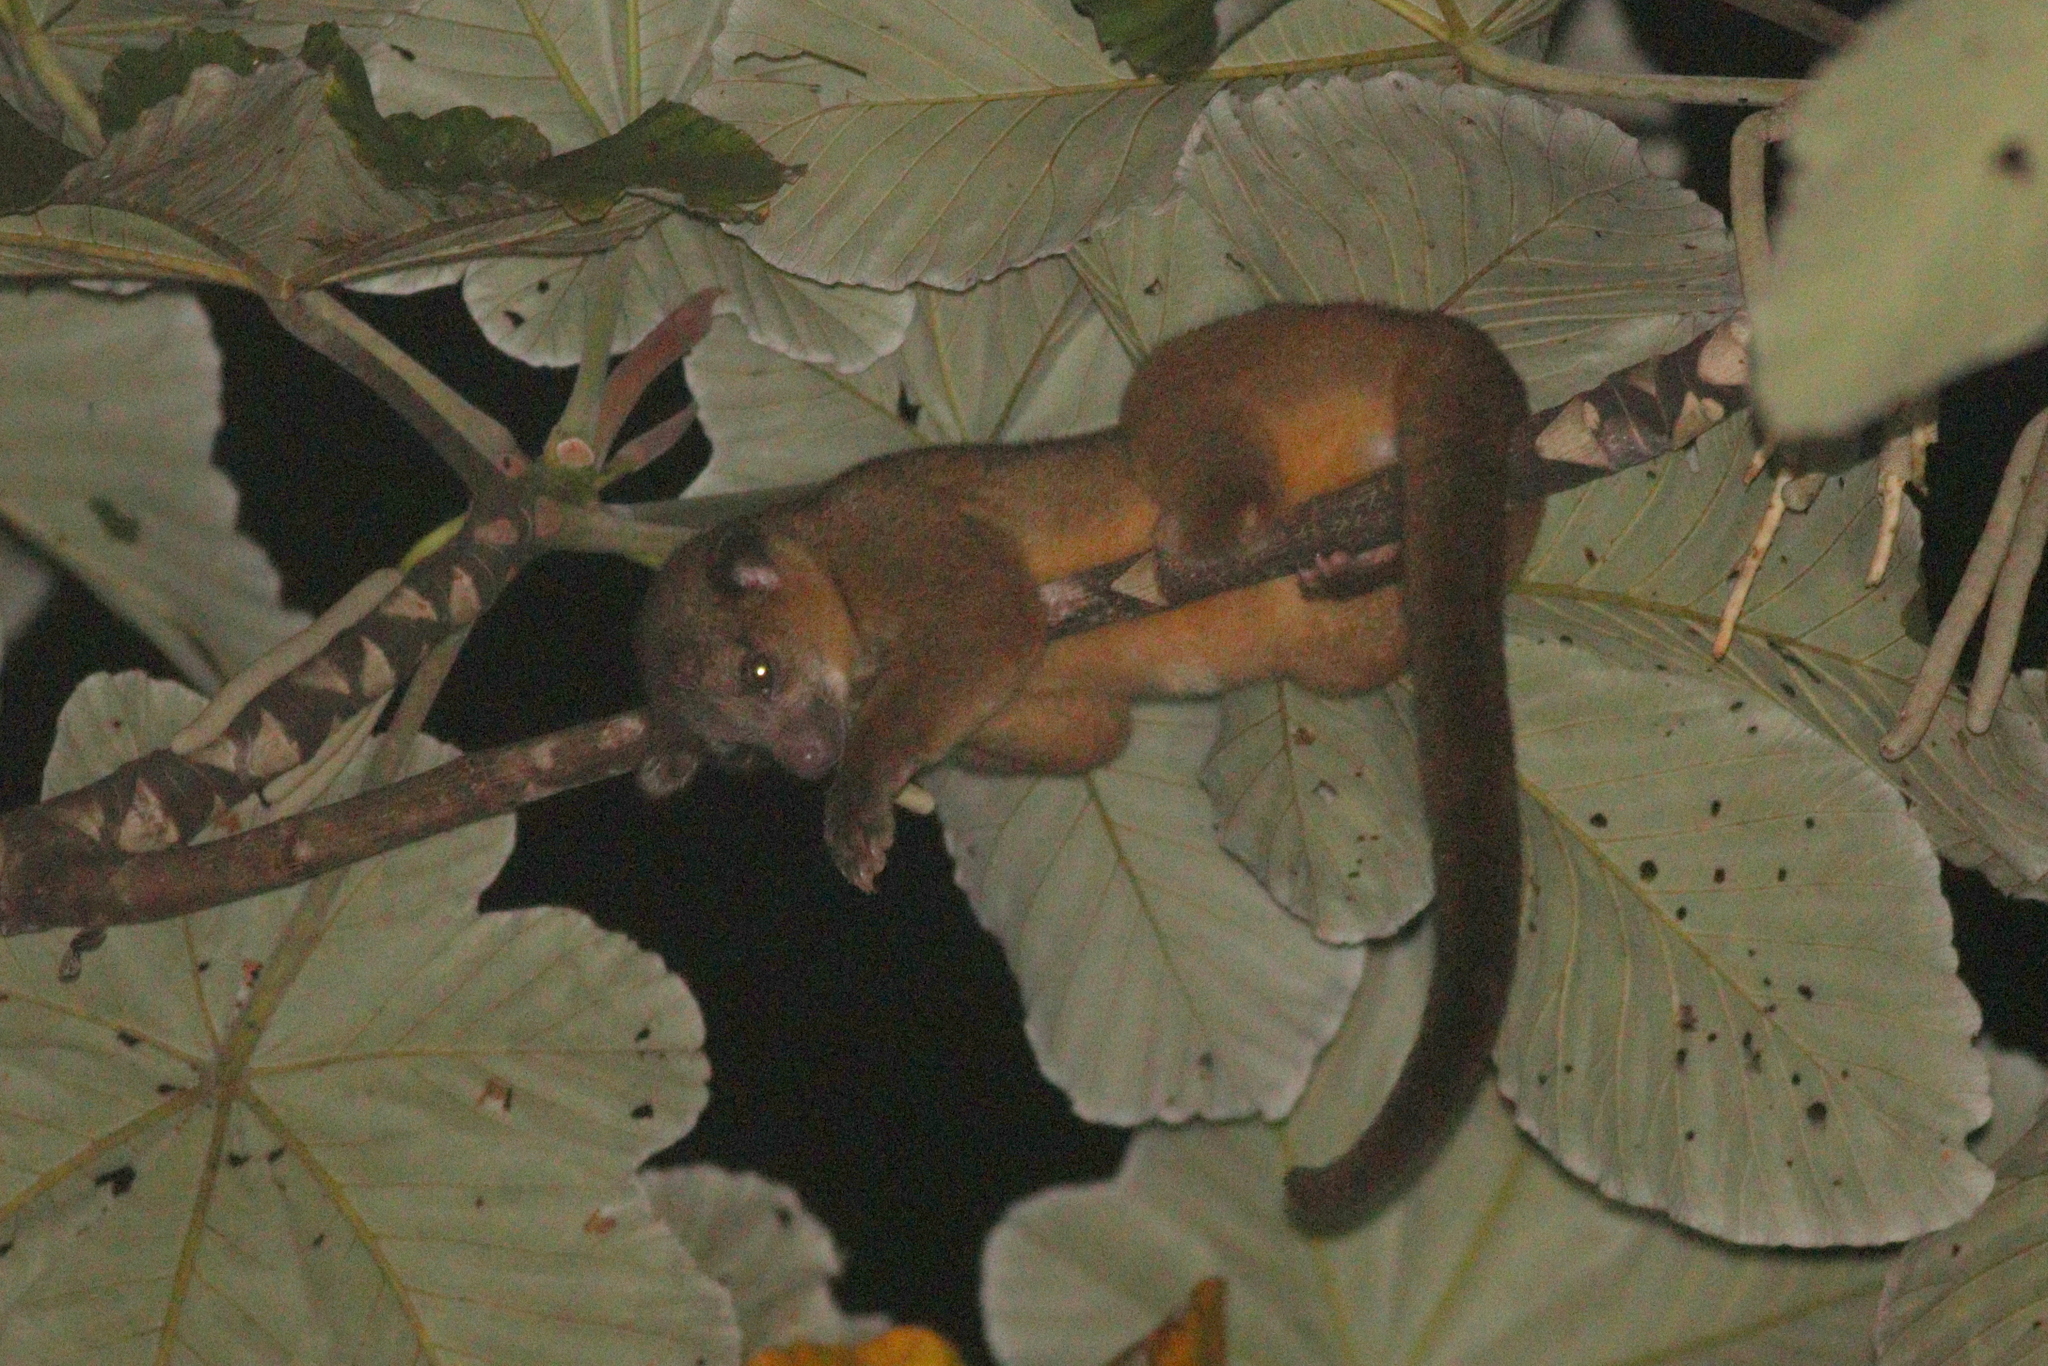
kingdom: Animalia
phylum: Chordata
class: Mammalia
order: Carnivora
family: Procyonidae
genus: Potos
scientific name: Potos flavus
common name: Kinkajou
